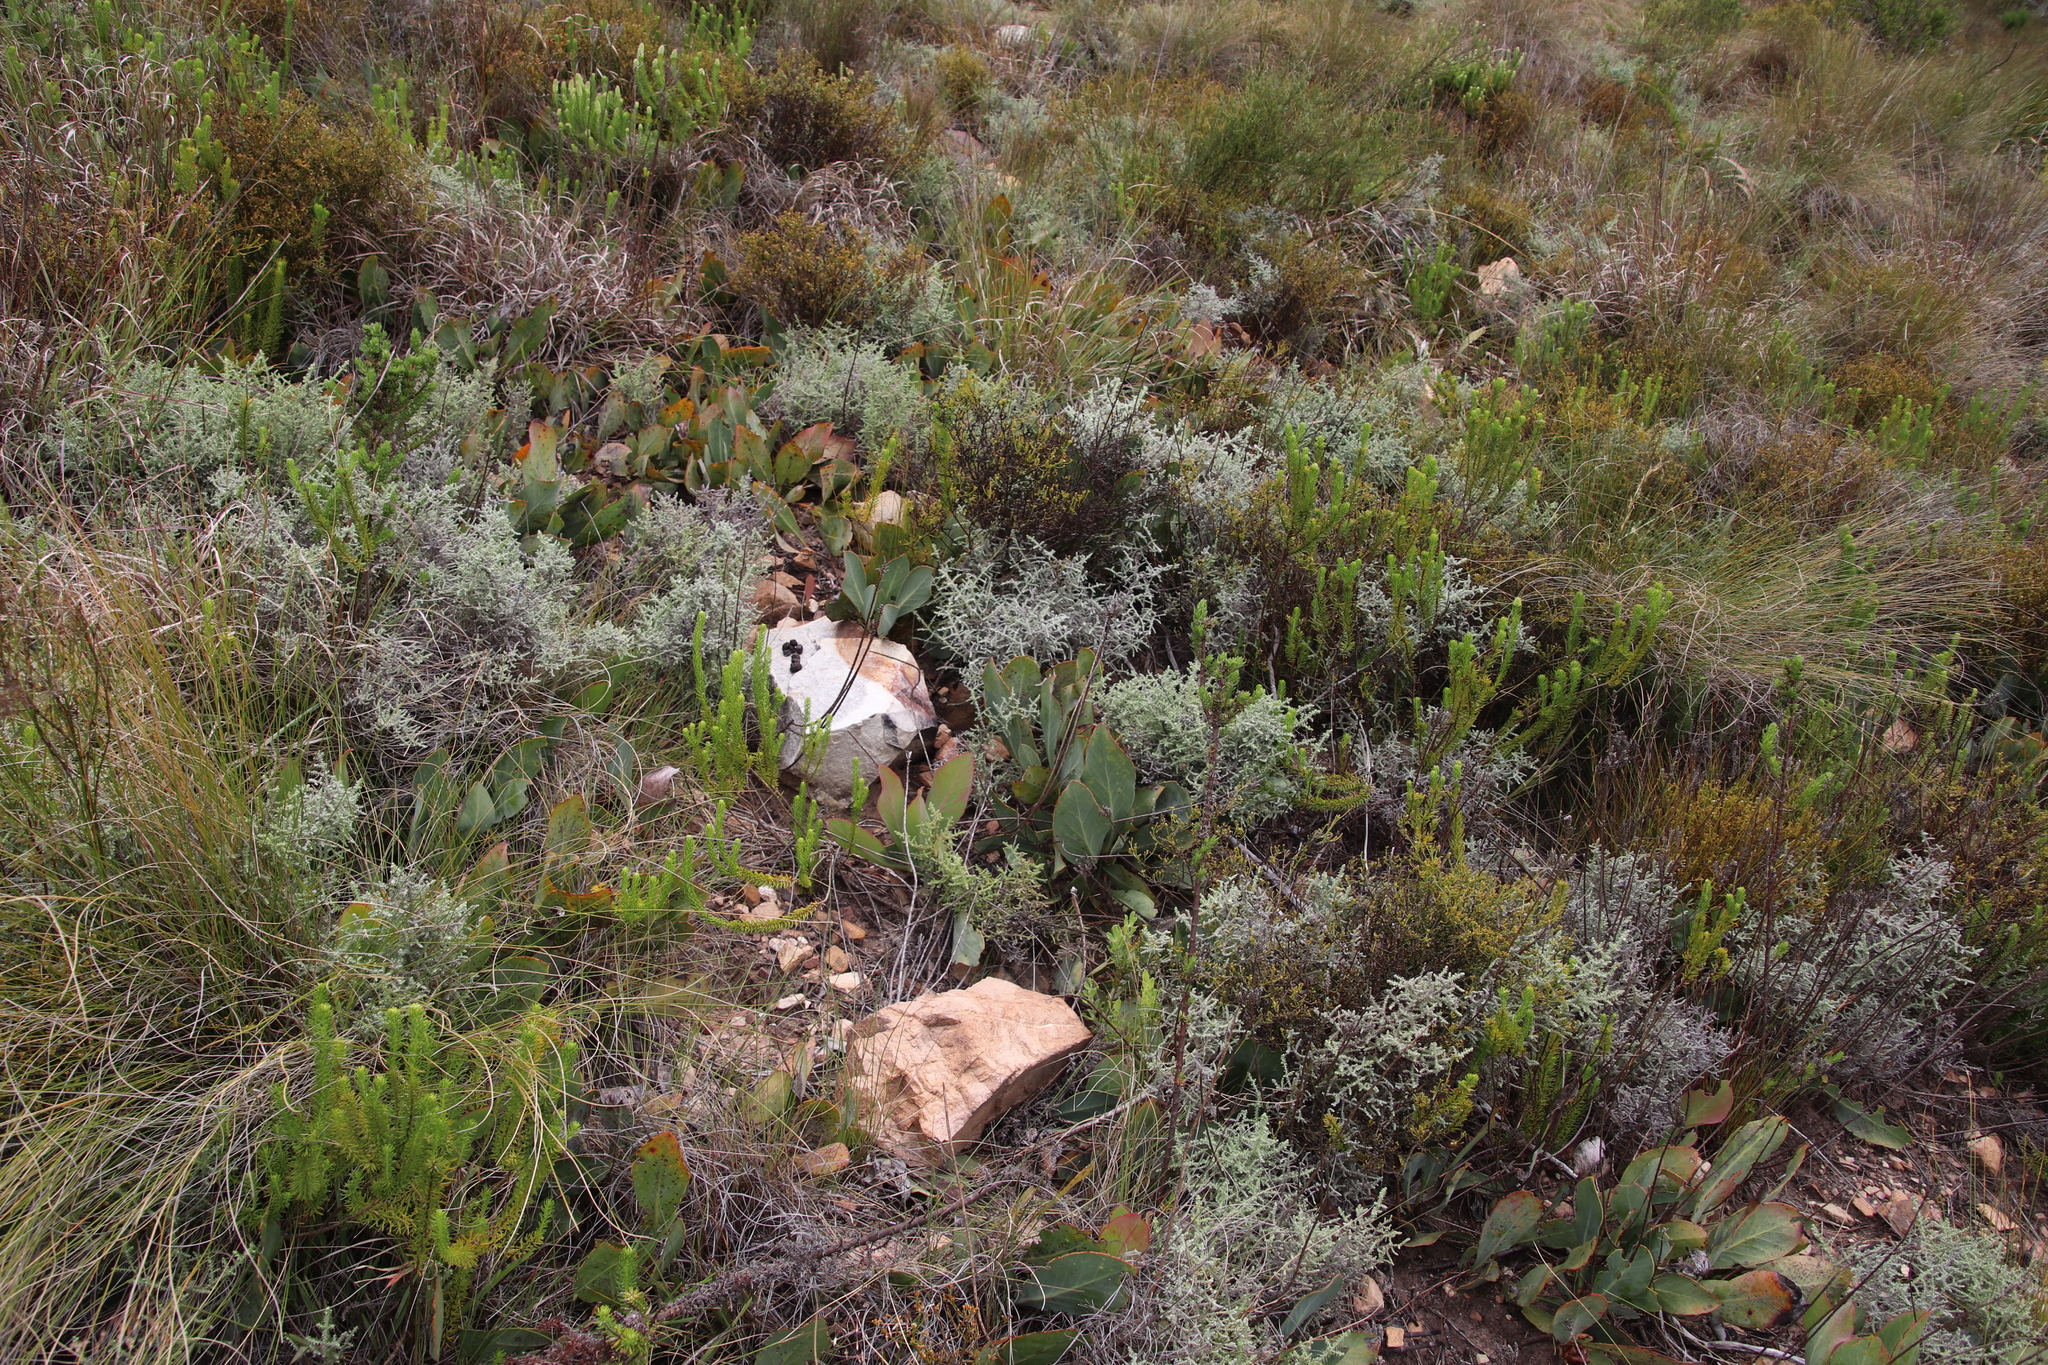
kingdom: Plantae
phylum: Tracheophyta
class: Magnoliopsida
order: Asterales
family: Asteraceae
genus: Seriphium
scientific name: Seriphium plumosum
